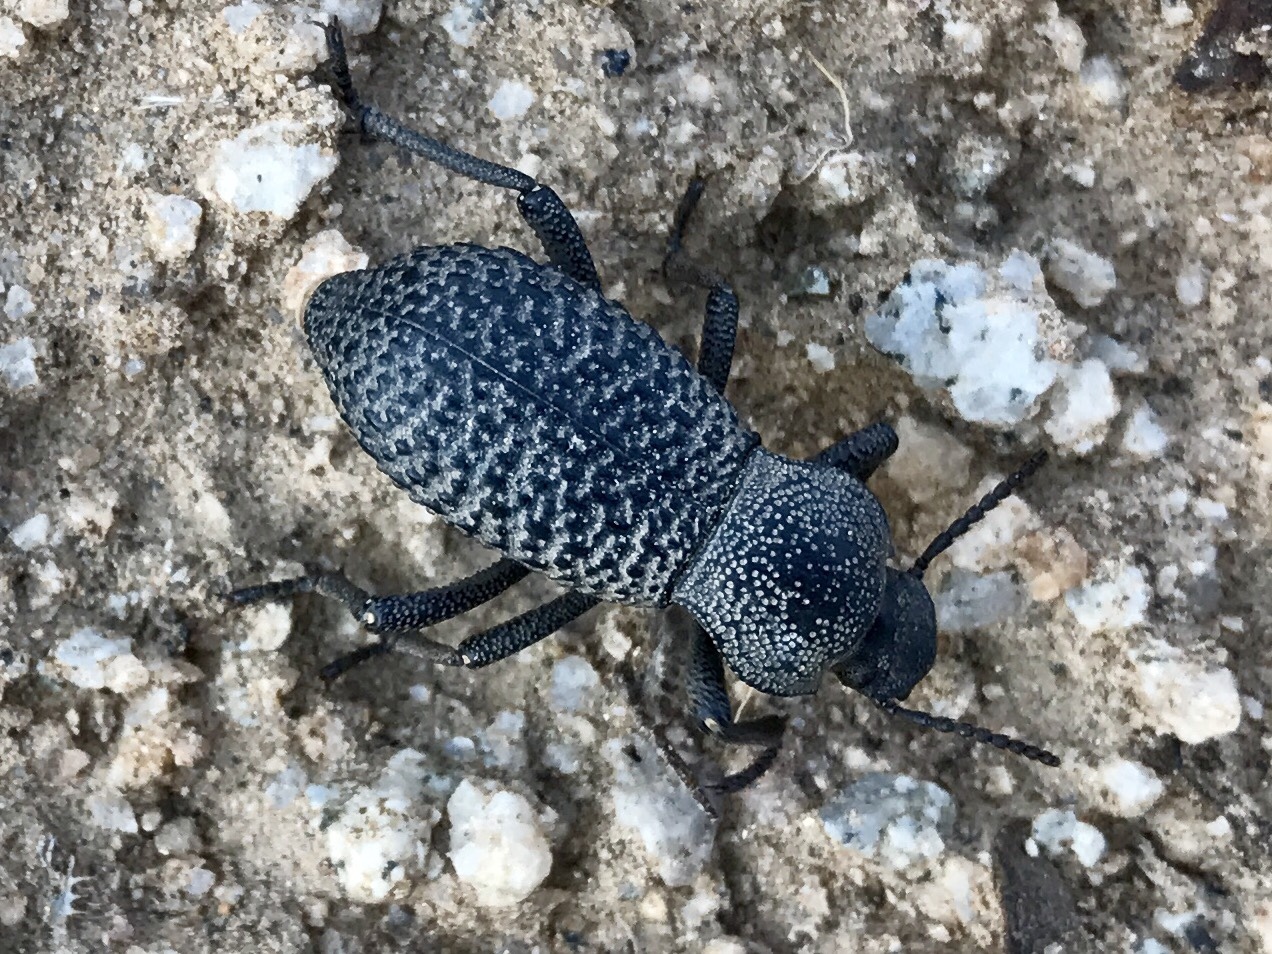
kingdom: Animalia
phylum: Arthropoda
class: Insecta
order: Coleoptera
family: Tenebrionidae
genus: Cryptoglossa
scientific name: Cryptoglossa variolosa
